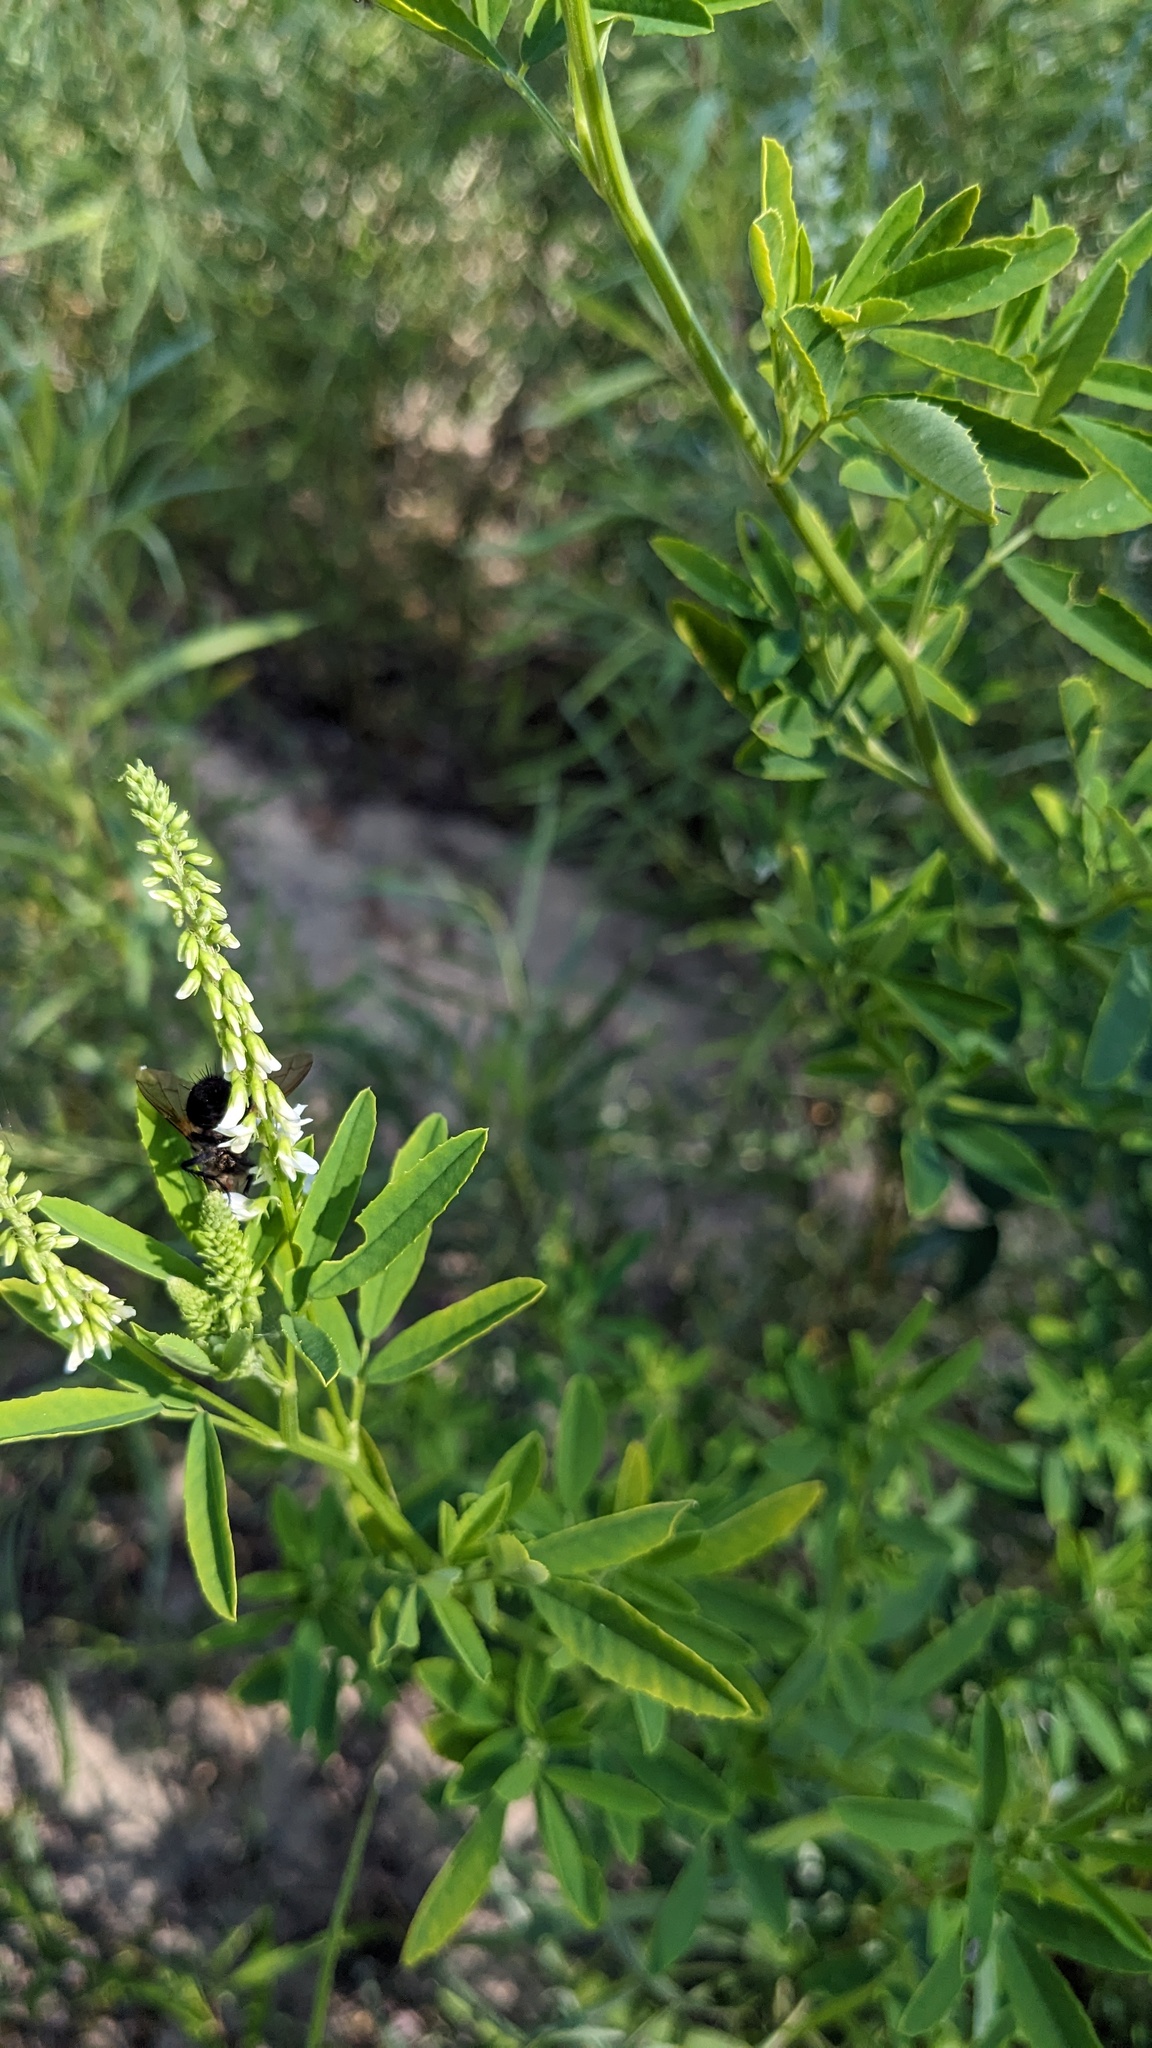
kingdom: Plantae
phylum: Tracheophyta
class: Magnoliopsida
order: Fabales
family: Fabaceae
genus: Melilotus
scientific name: Melilotus albus
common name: White melilot
